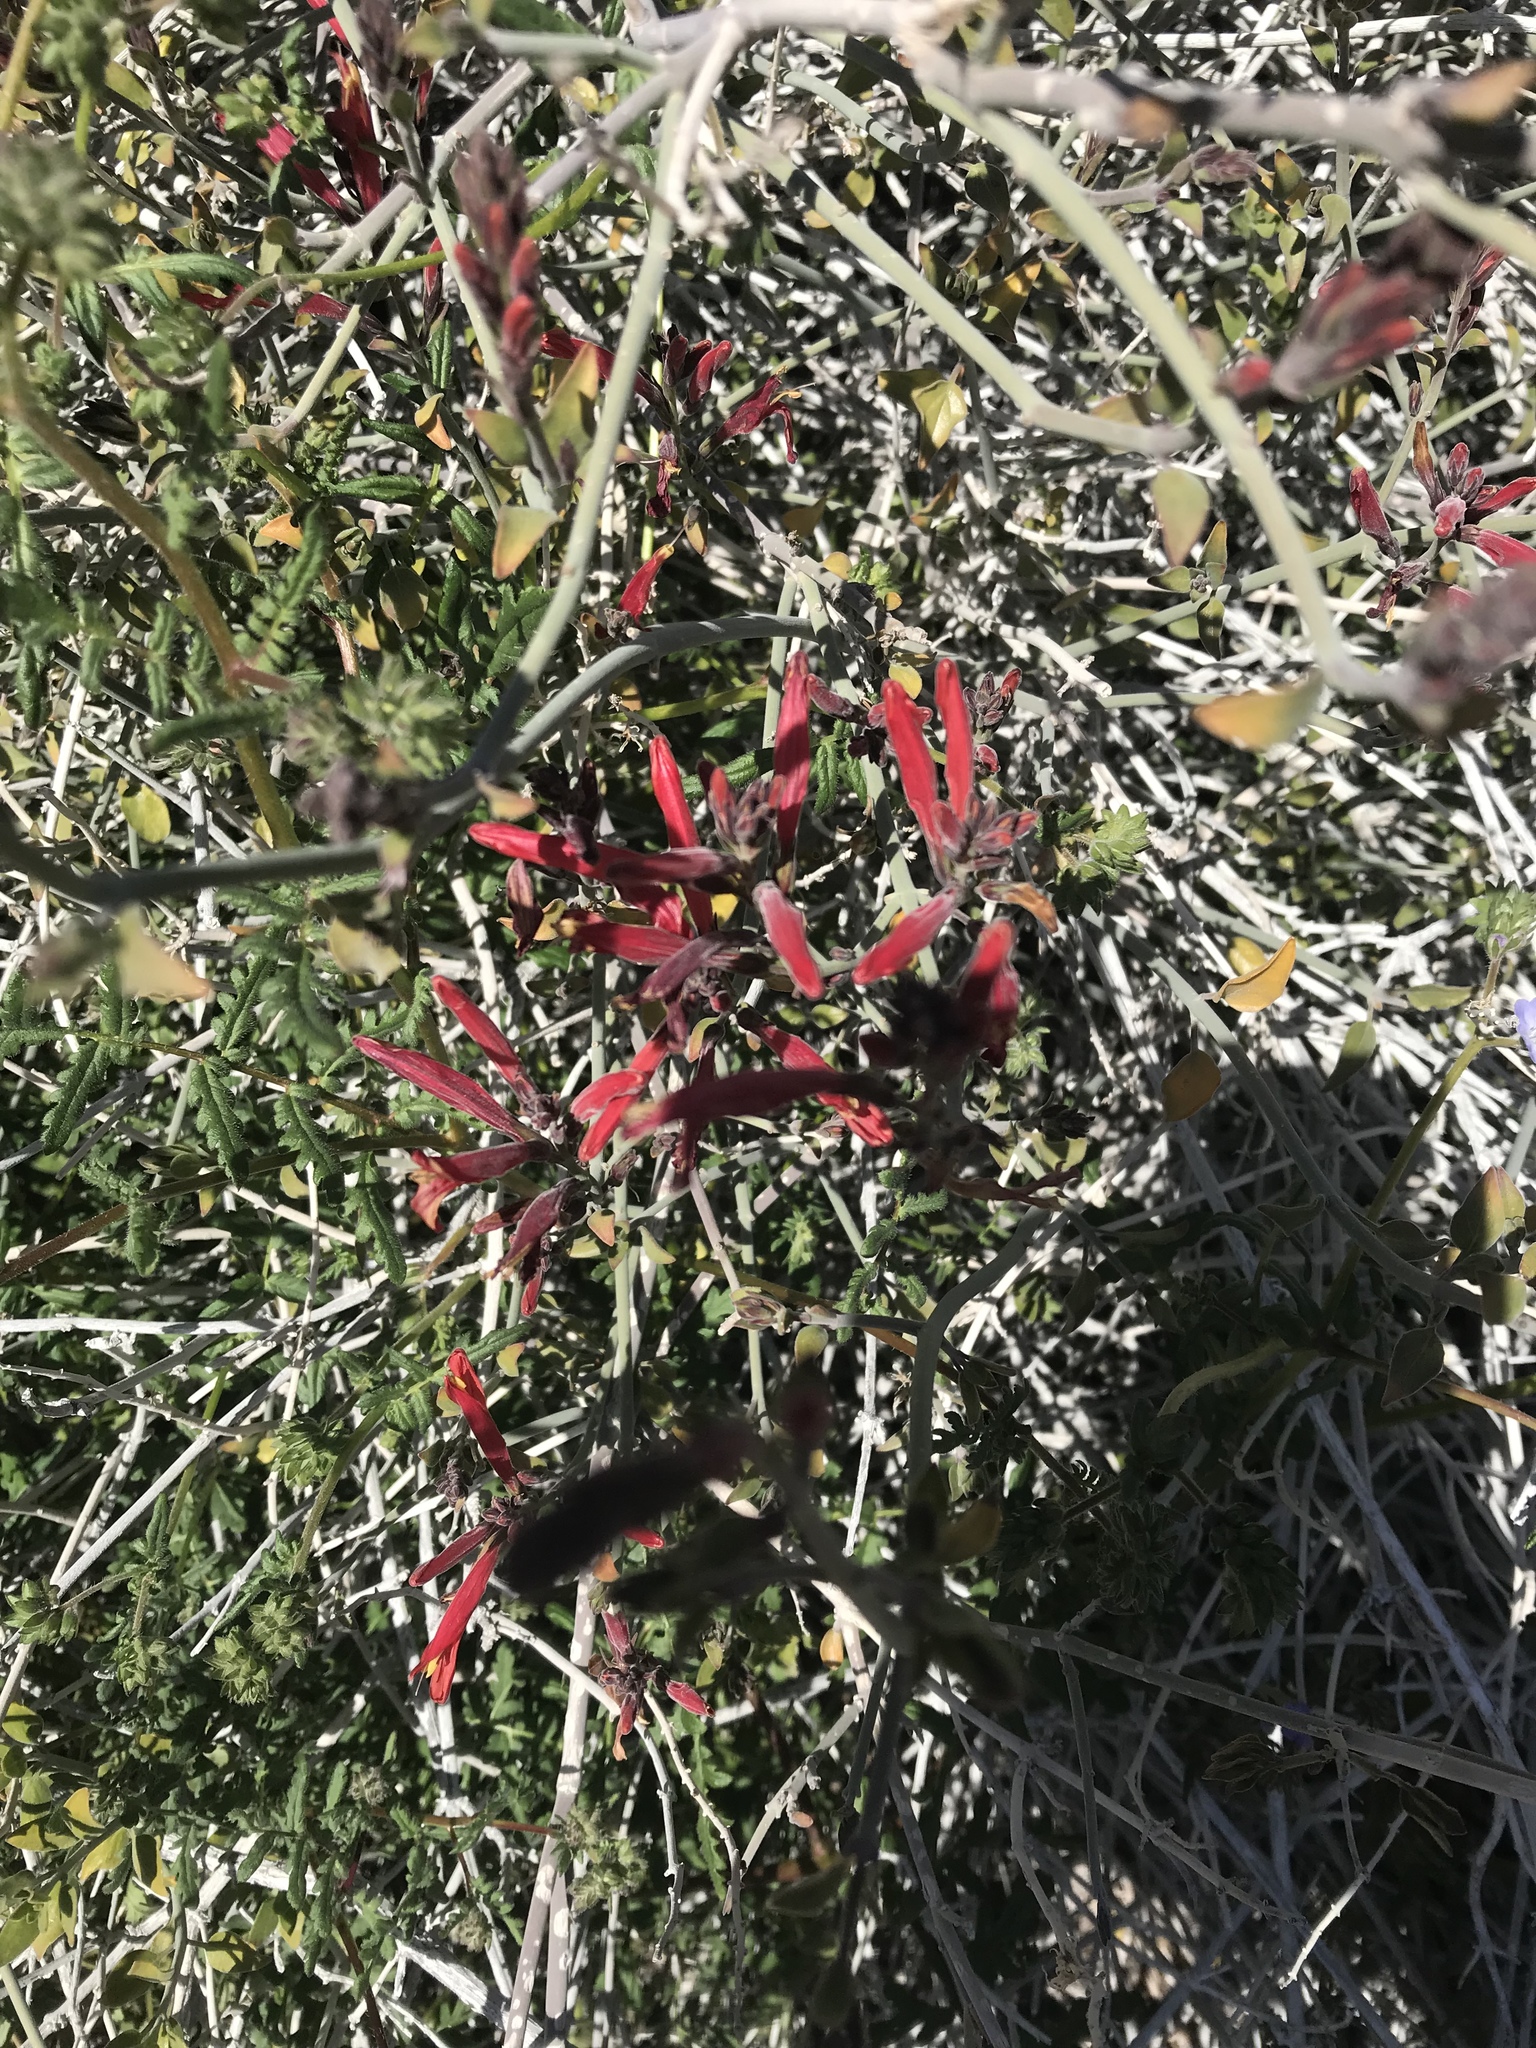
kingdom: Plantae
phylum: Tracheophyta
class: Magnoliopsida
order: Lamiales
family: Acanthaceae
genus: Justicia
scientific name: Justicia californica
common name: Chuparosa-honeysuckle
